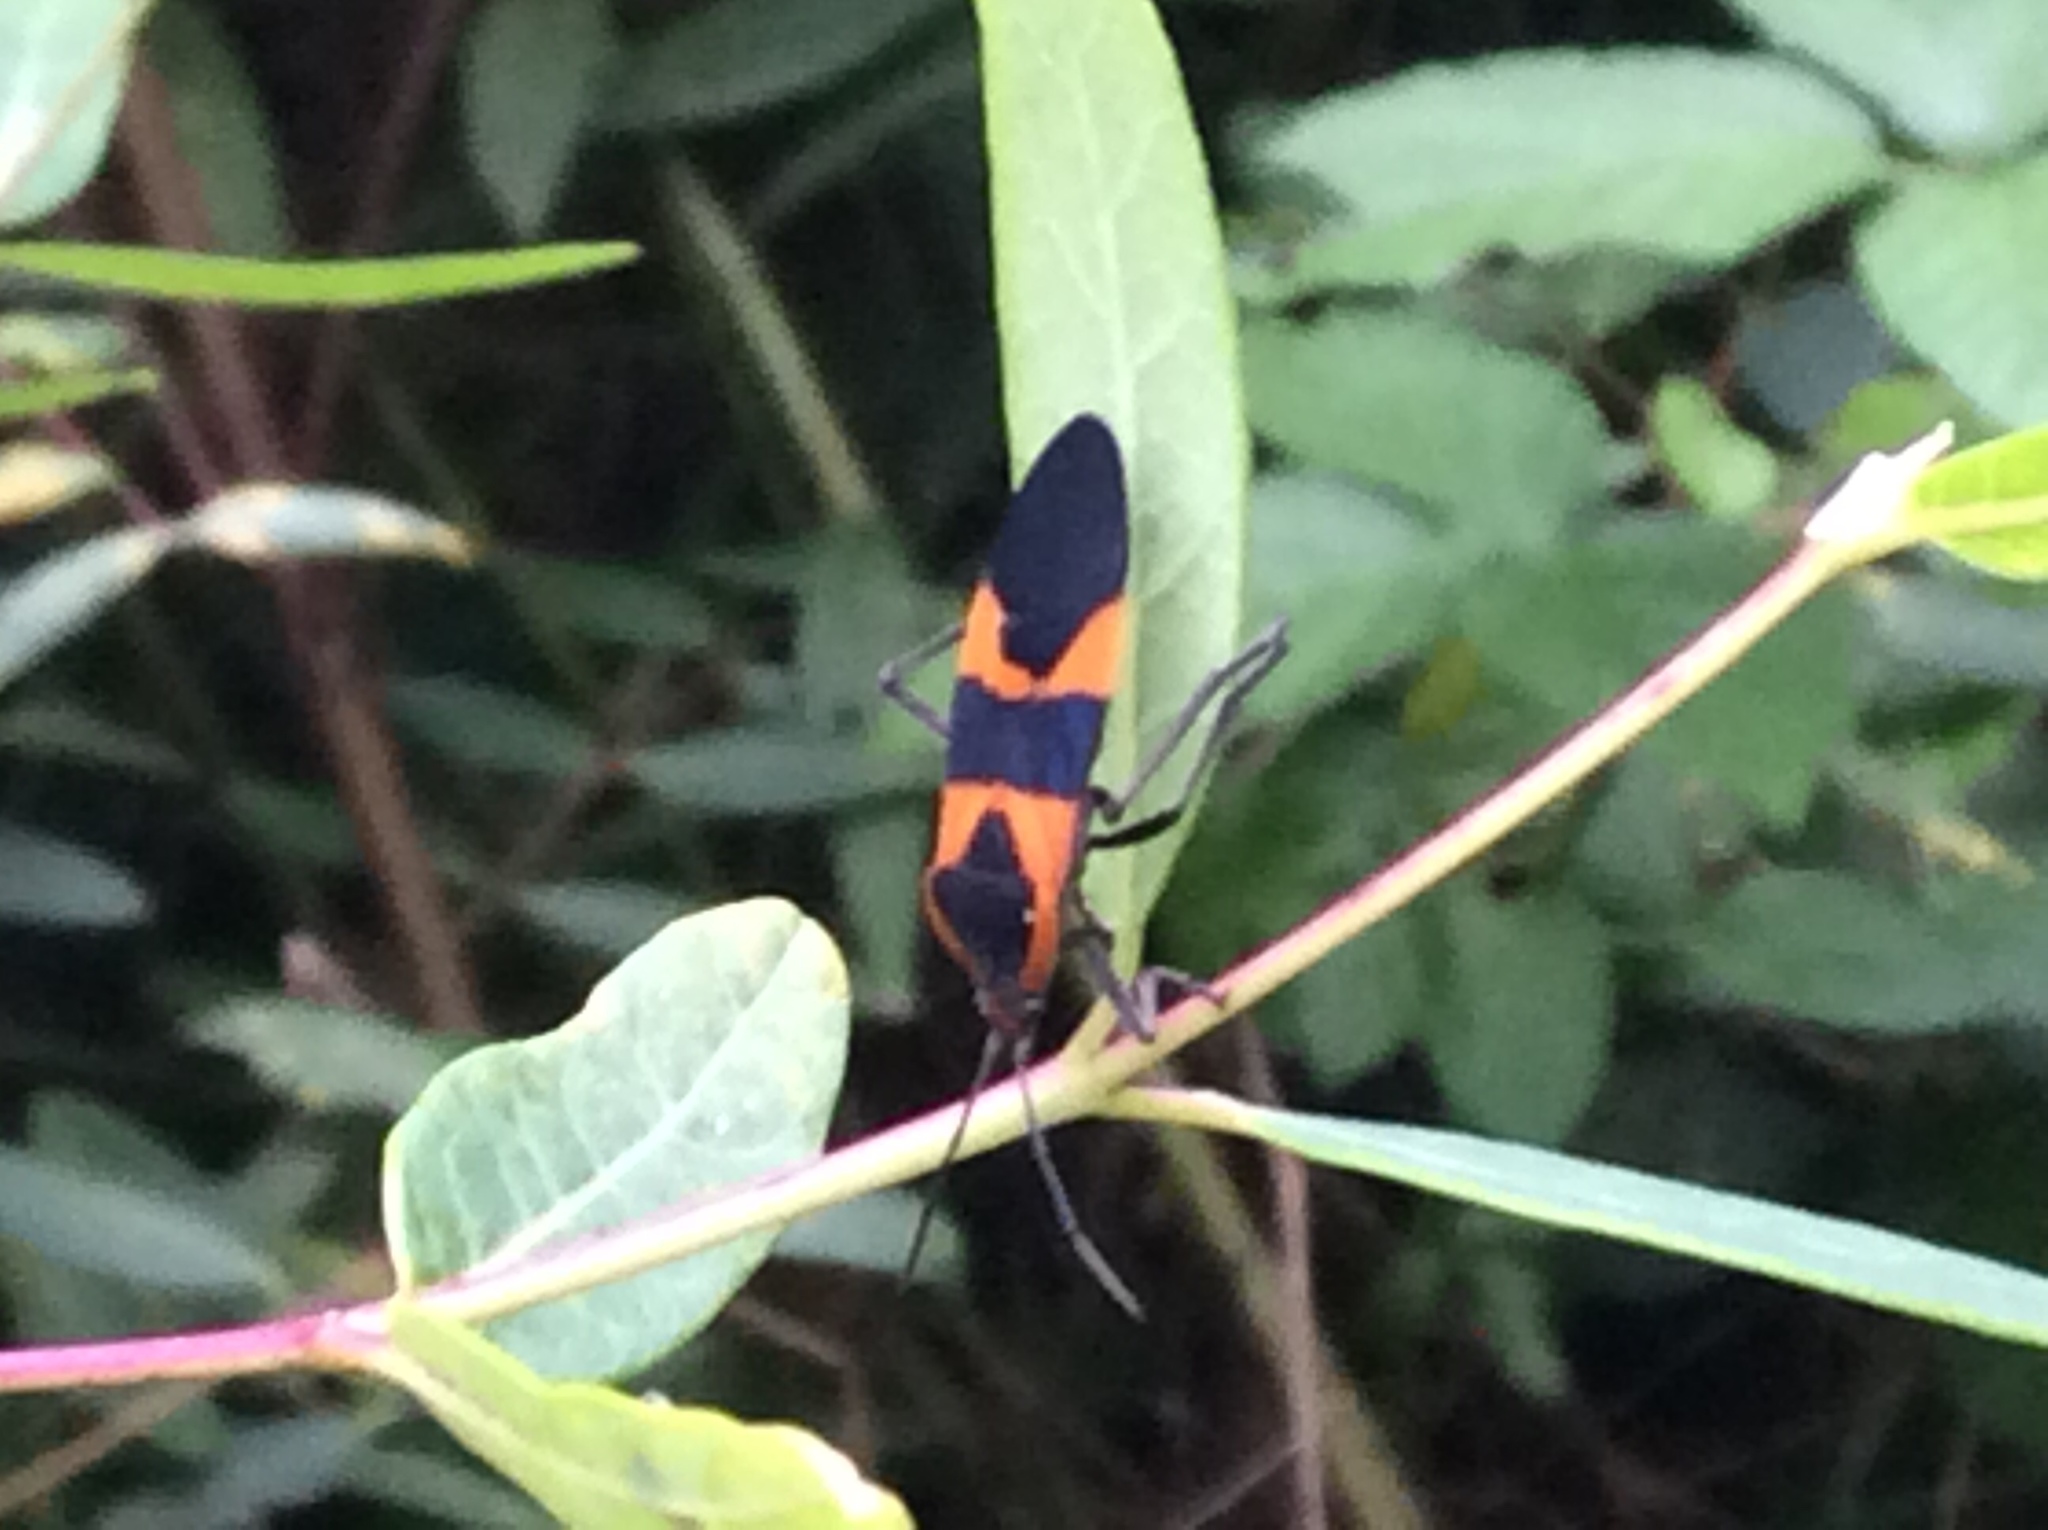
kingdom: Animalia
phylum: Arthropoda
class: Insecta
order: Hemiptera
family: Lygaeidae
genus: Oncopeltus
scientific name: Oncopeltus fasciatus
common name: Large milkweed bug
